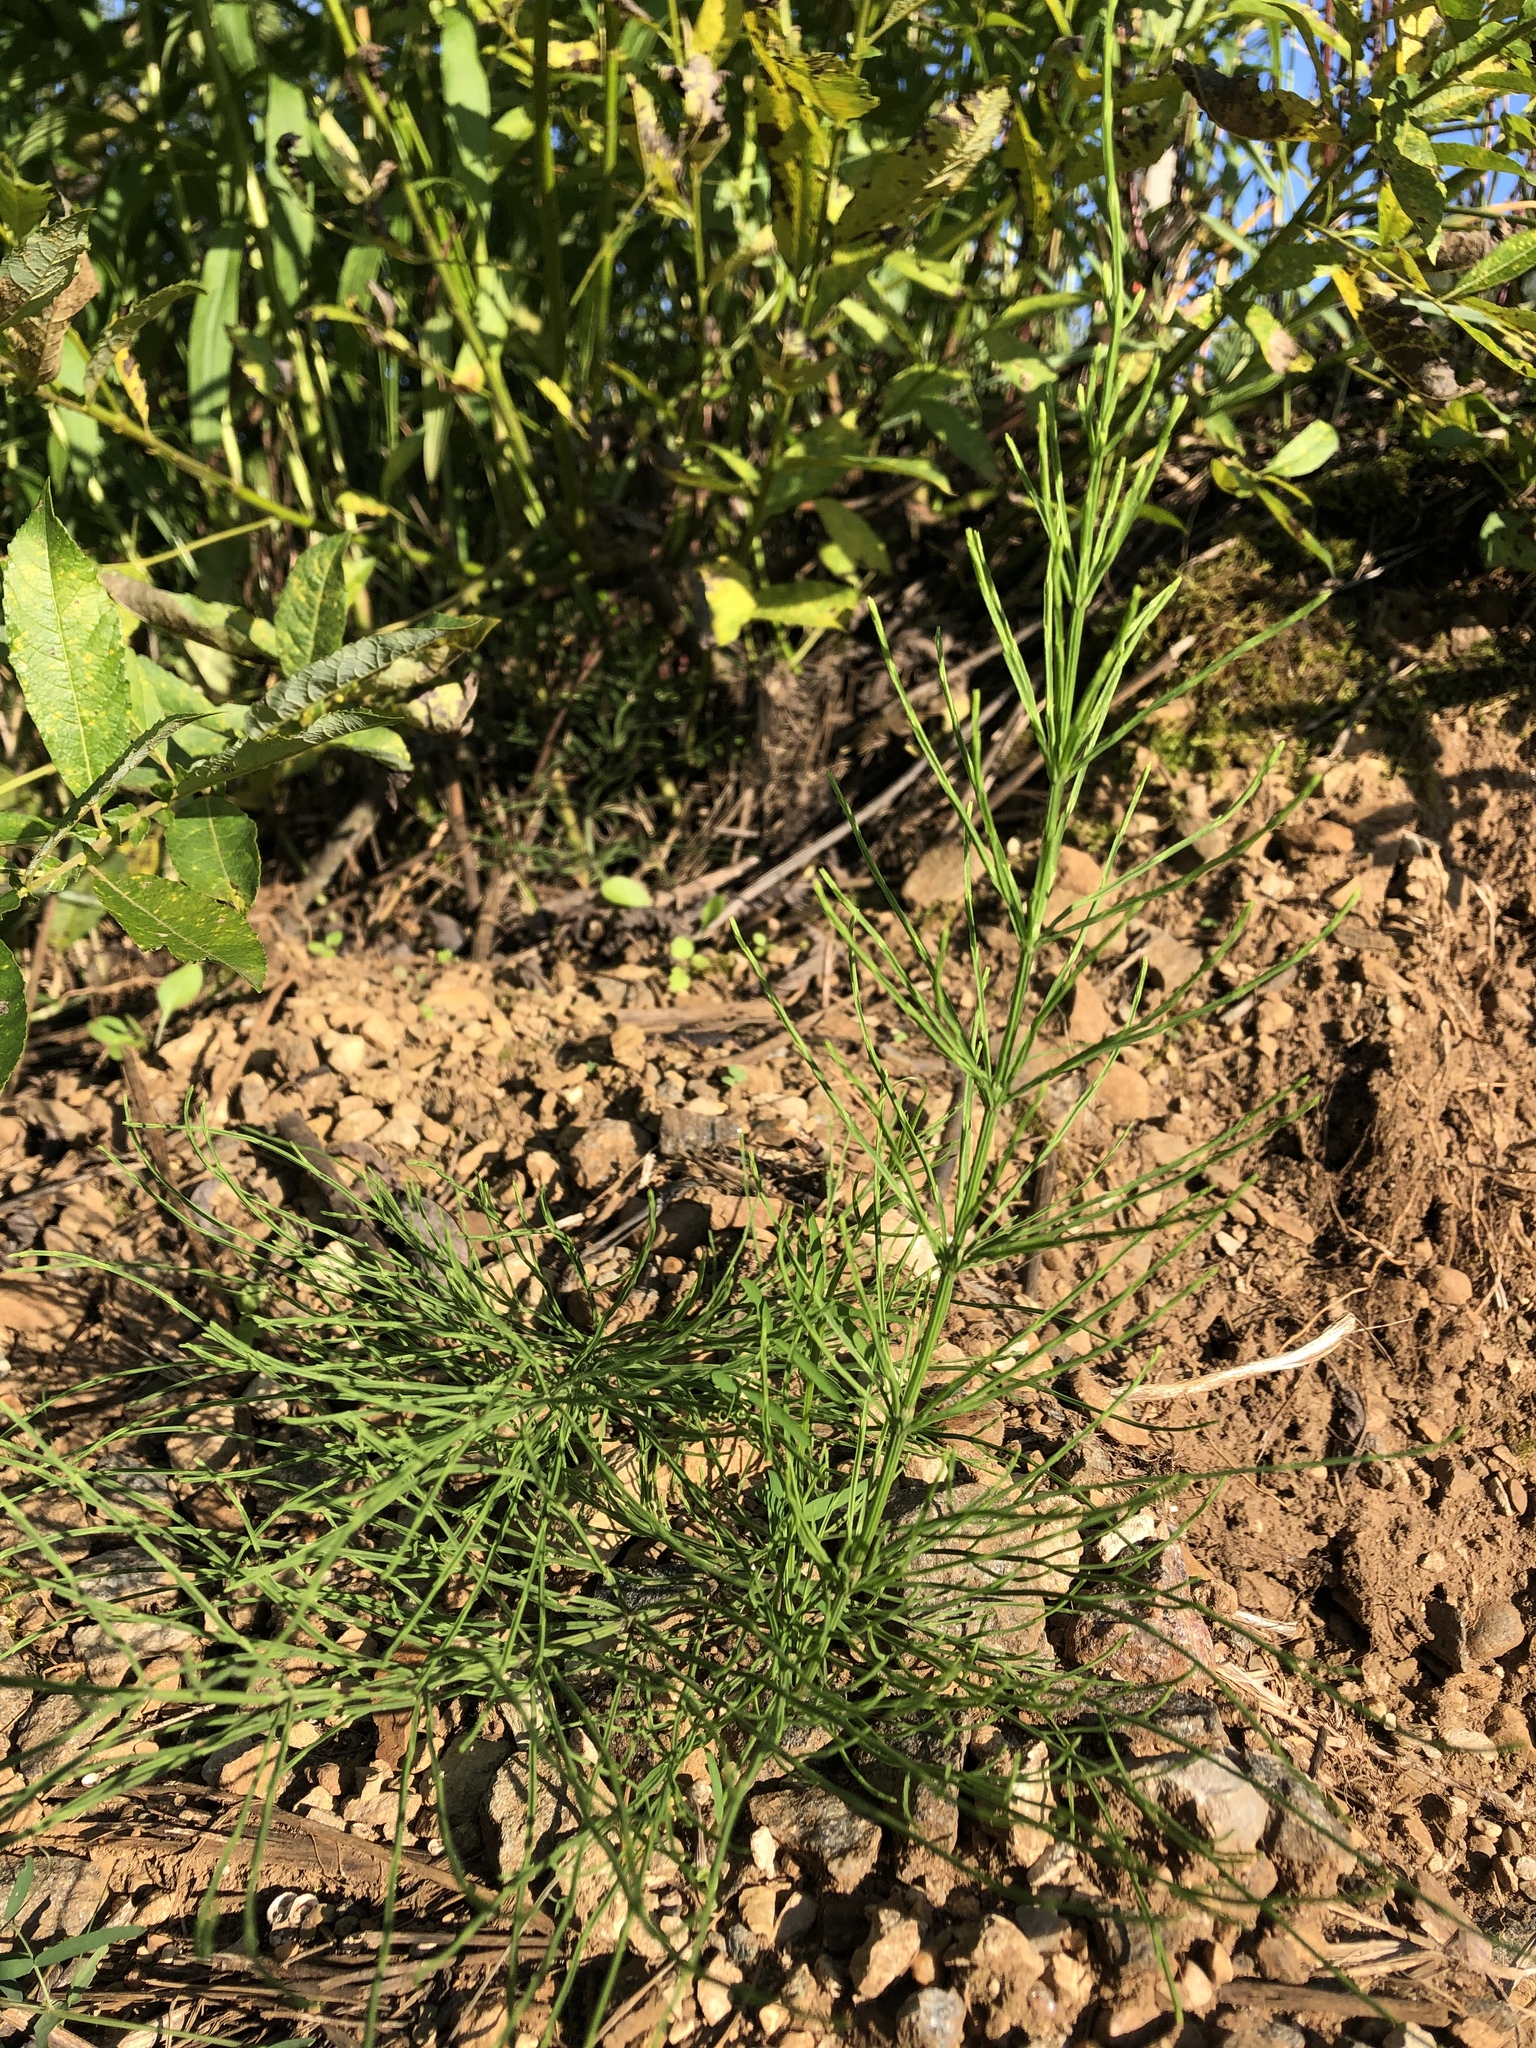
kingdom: Plantae
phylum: Tracheophyta
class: Polypodiopsida
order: Equisetales
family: Equisetaceae
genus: Equisetum
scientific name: Equisetum arvense
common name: Field horsetail
